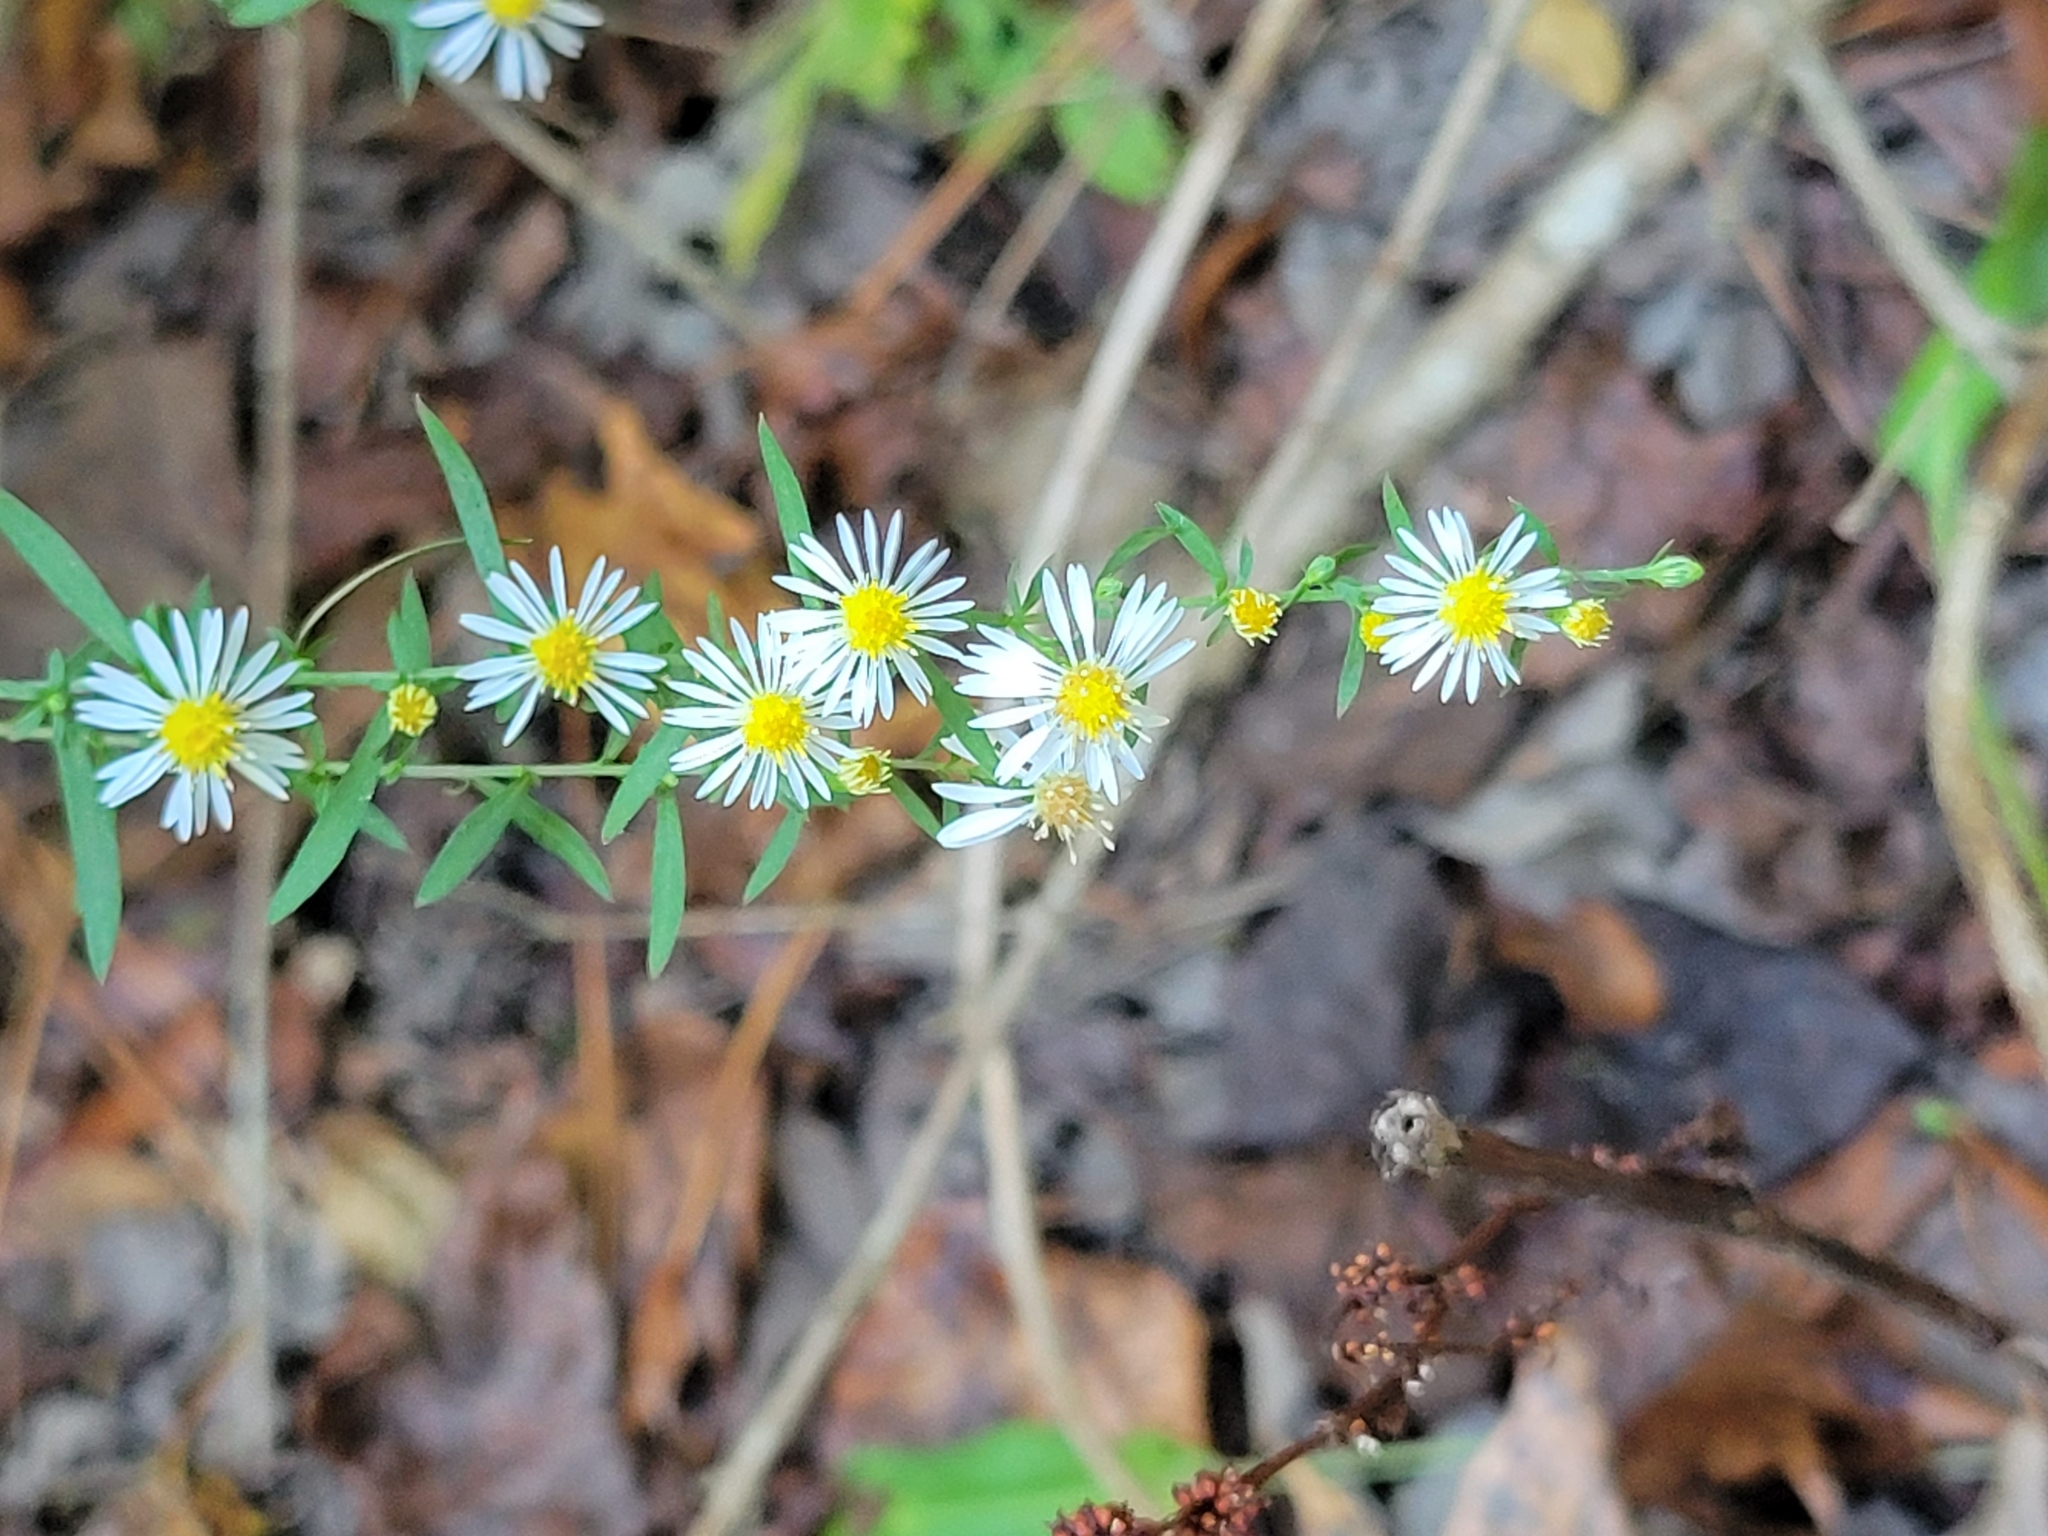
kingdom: Plantae
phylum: Tracheophyta
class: Magnoliopsida
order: Asterales
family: Asteraceae
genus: Symphyotrichum
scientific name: Symphyotrichum lanceolatum
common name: Panicled aster
